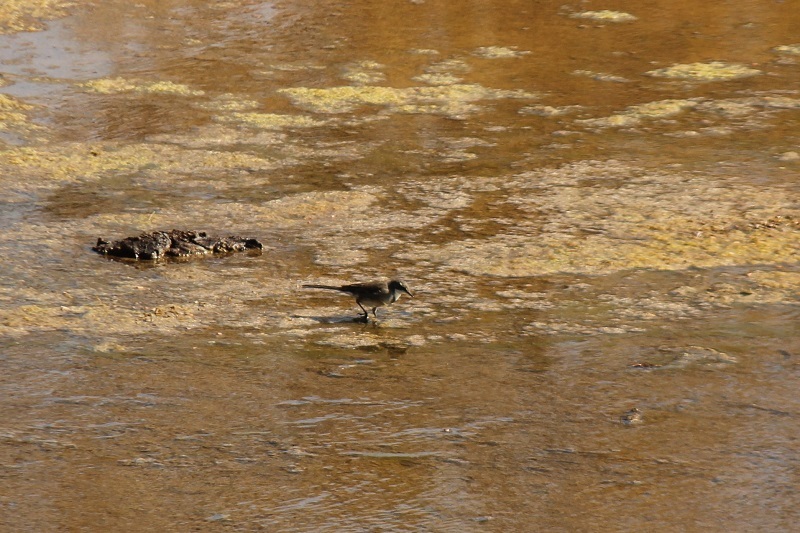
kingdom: Animalia
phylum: Chordata
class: Aves
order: Passeriformes
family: Motacillidae
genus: Motacilla
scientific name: Motacilla capensis
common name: Cape wagtail
